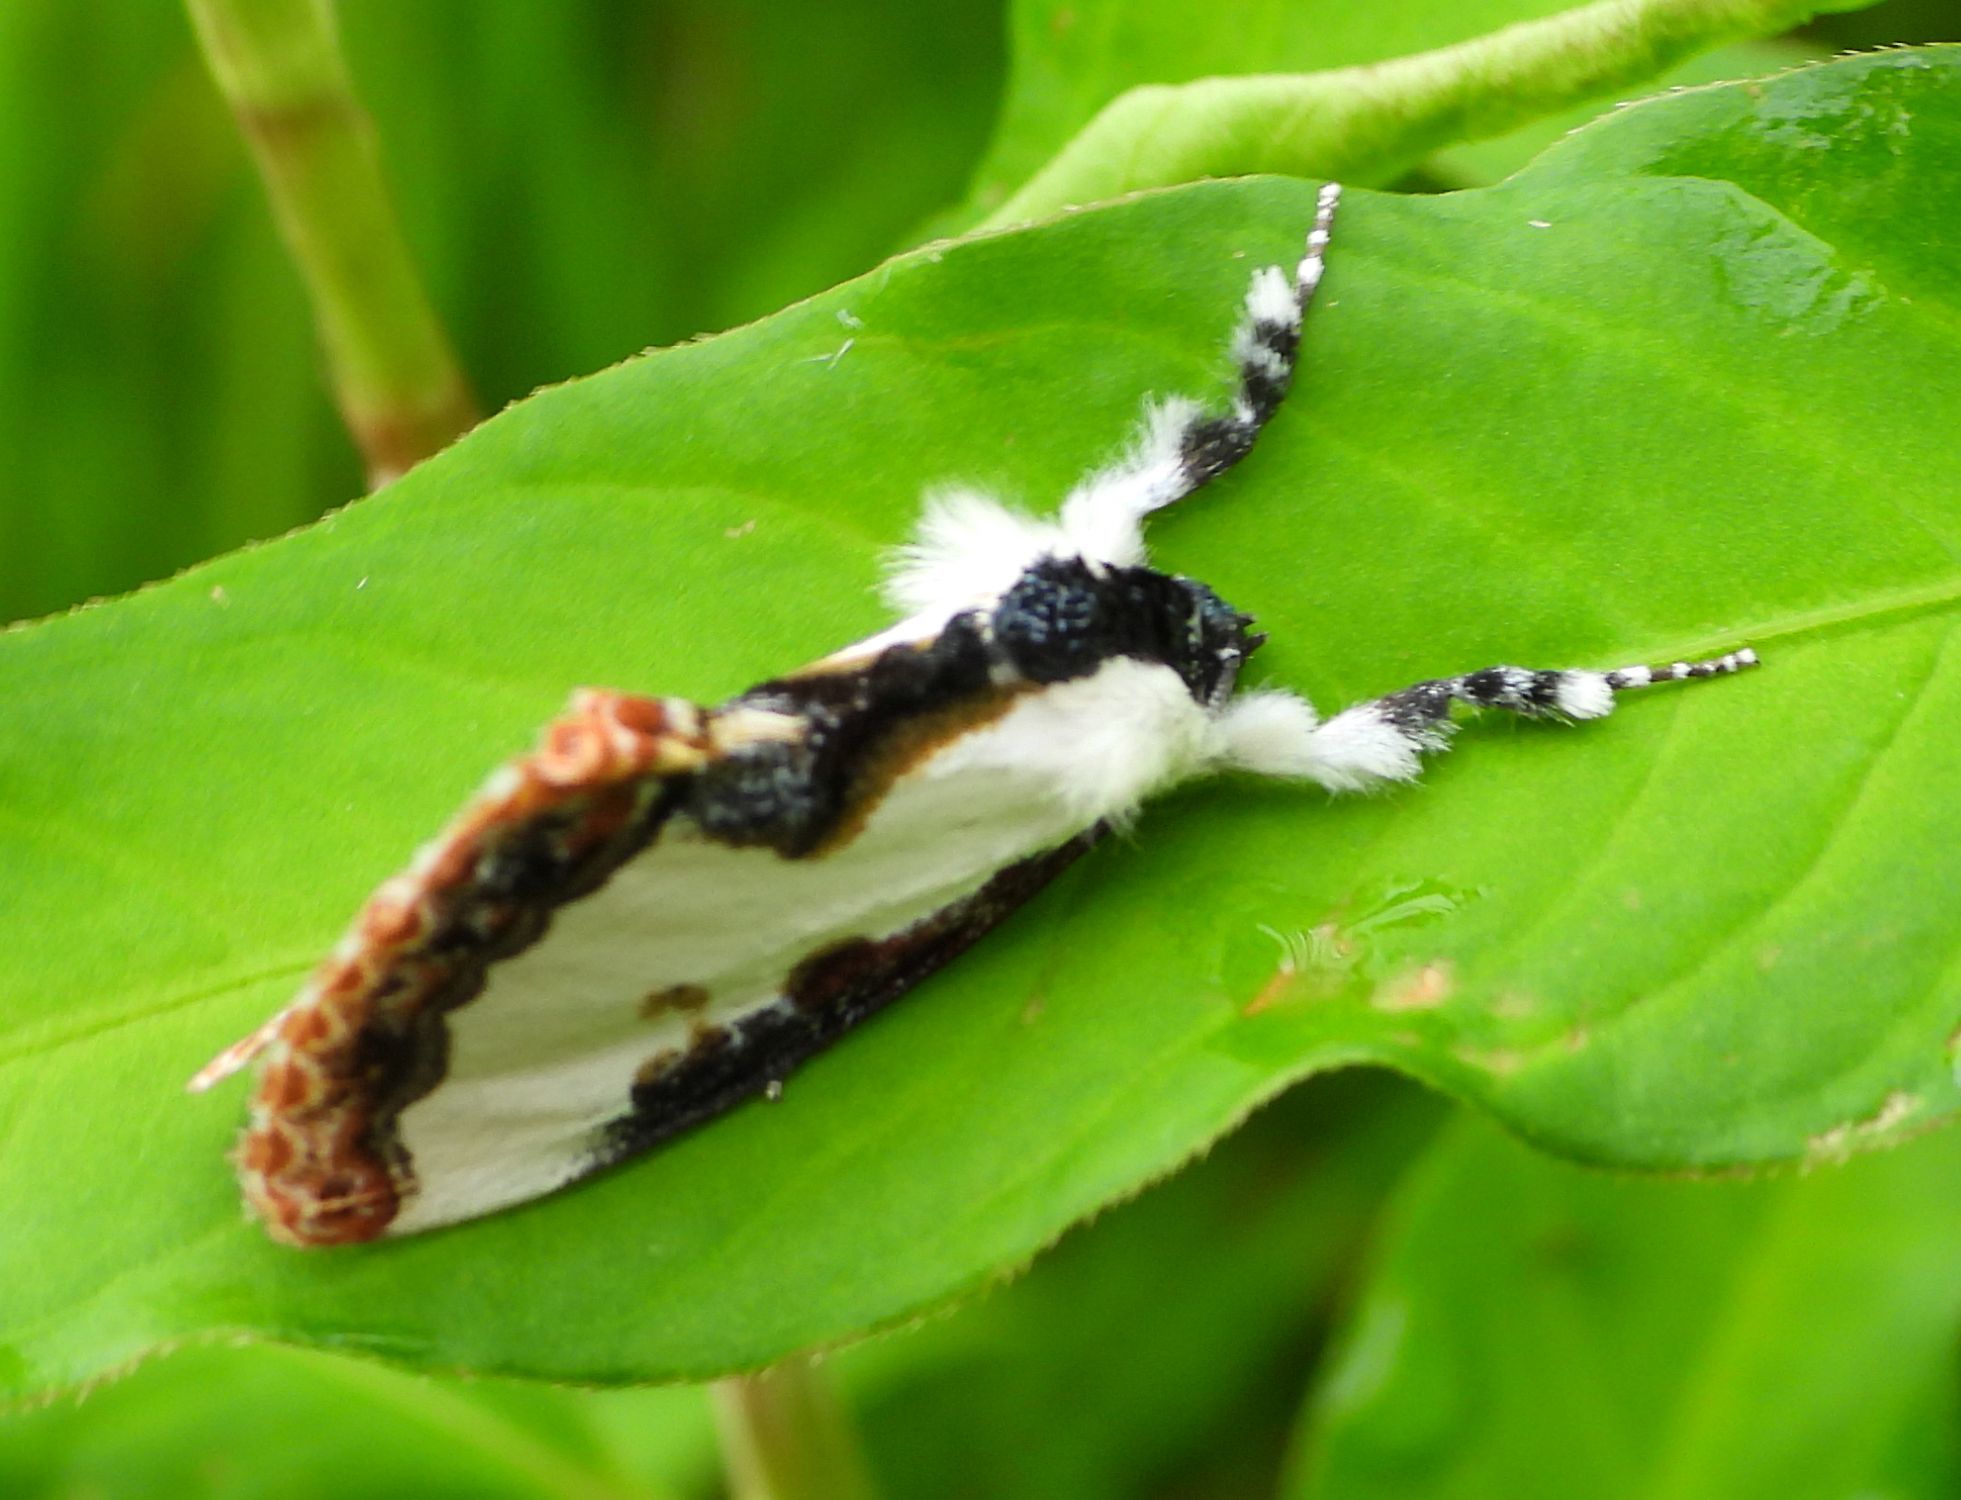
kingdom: Animalia
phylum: Arthropoda
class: Insecta
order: Lepidoptera
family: Noctuidae
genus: Eudryas
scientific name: Eudryas unio
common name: Pearly wood-nymph
